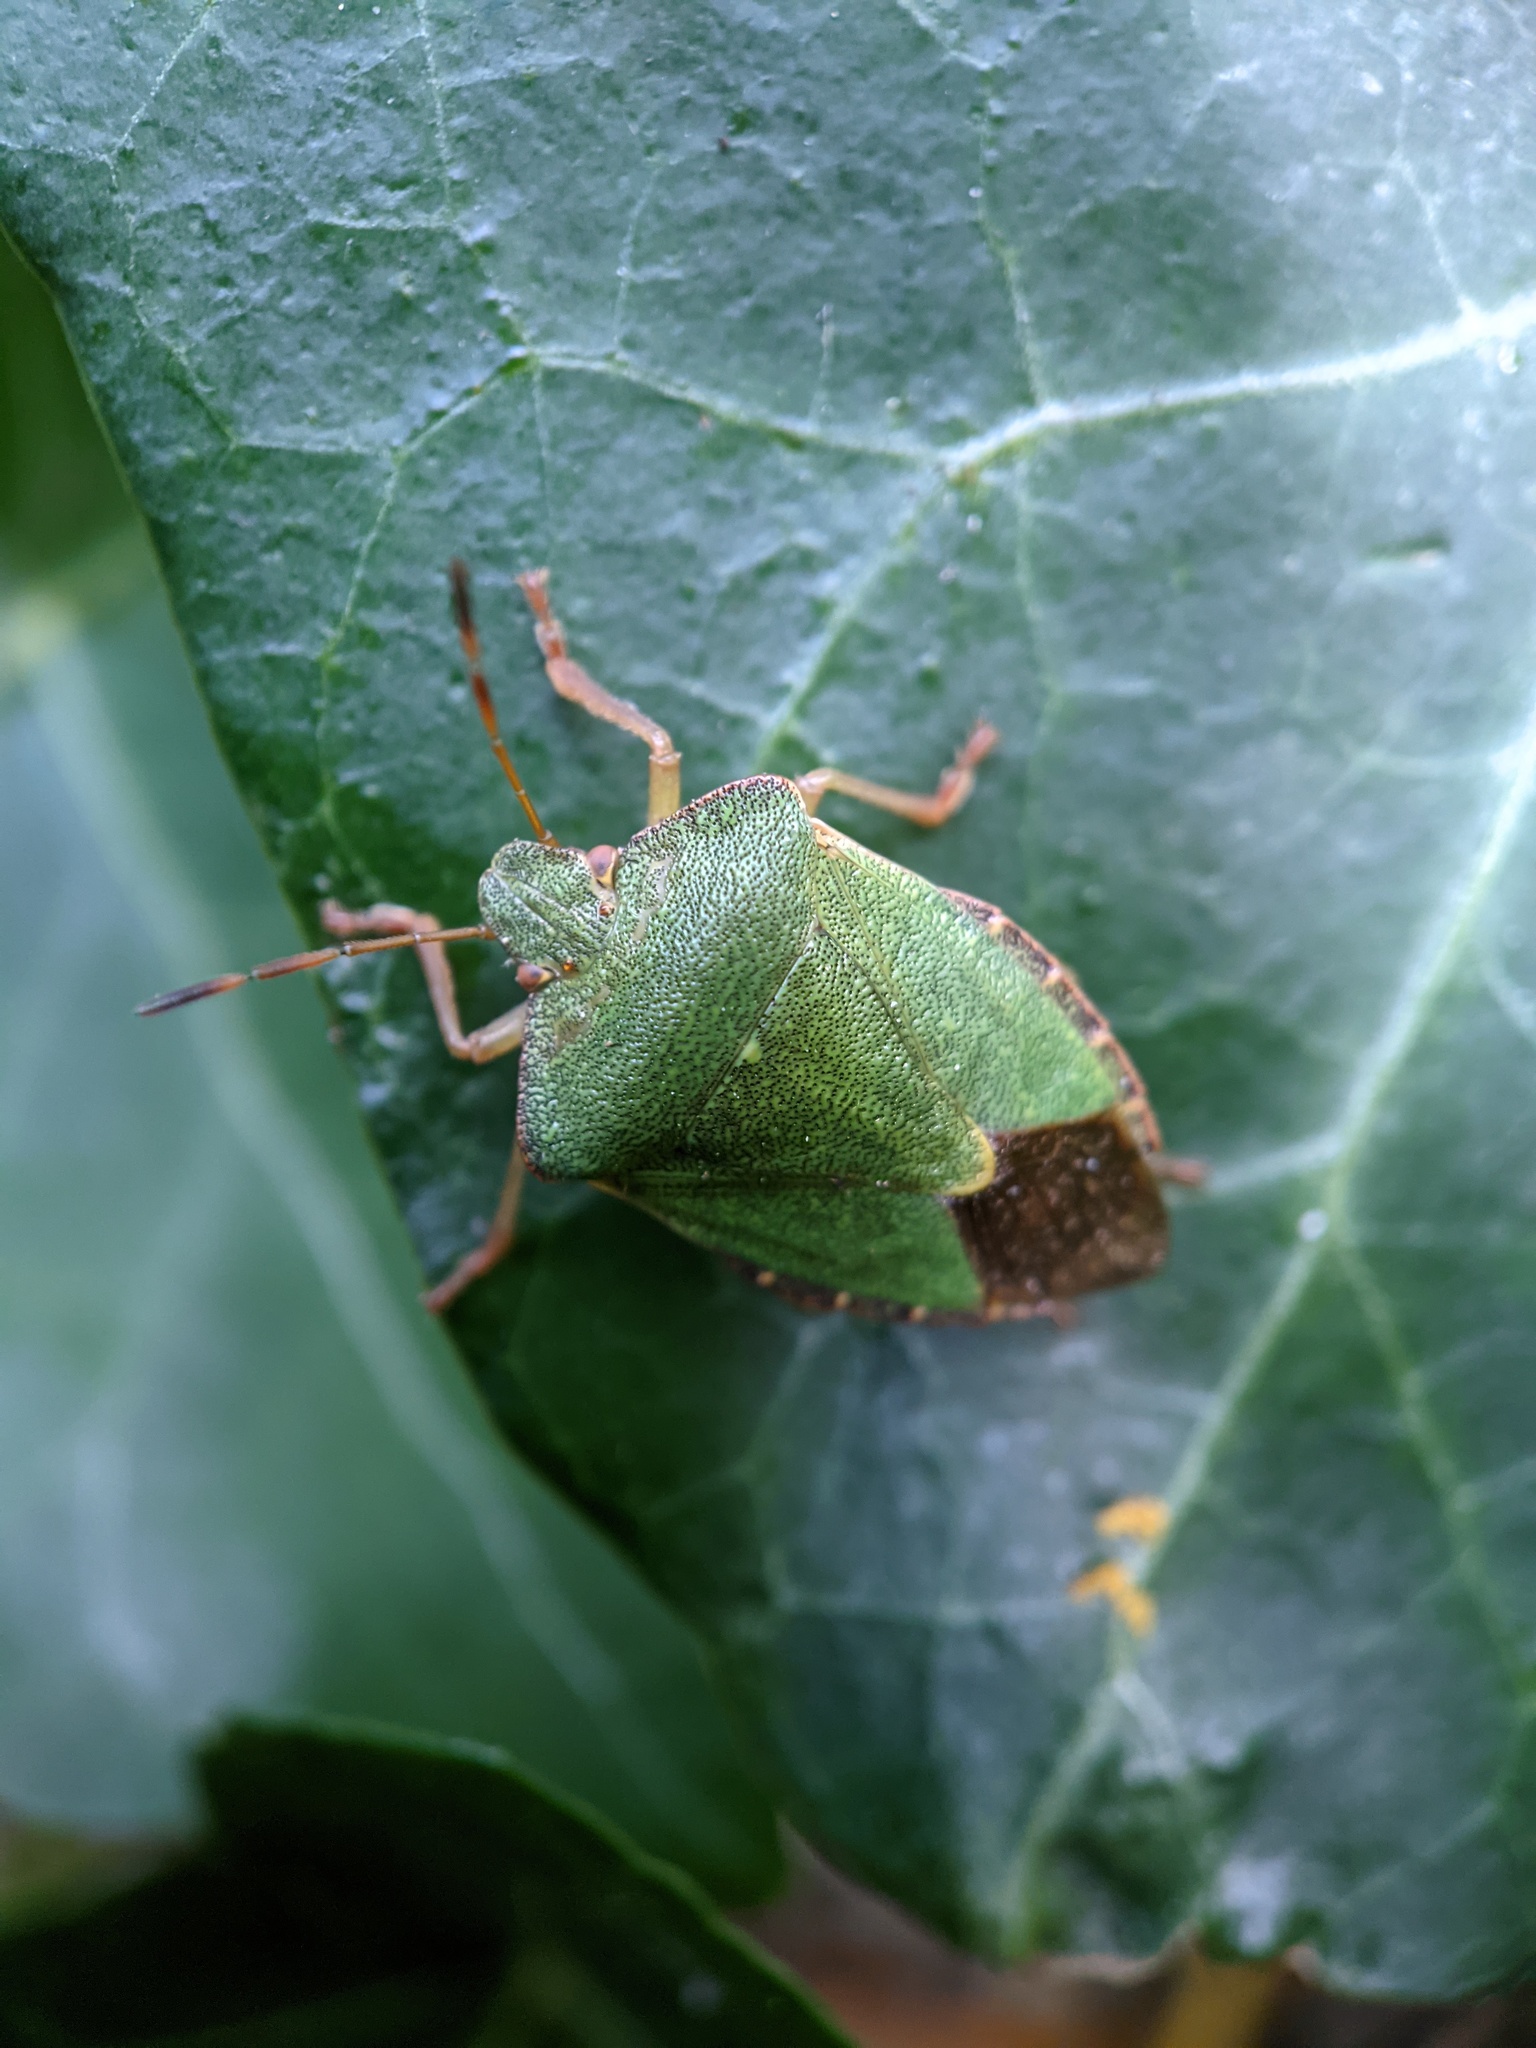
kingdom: Animalia
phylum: Arthropoda
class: Insecta
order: Hemiptera
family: Pentatomidae
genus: Palomena
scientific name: Palomena prasina
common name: Green shieldbug
